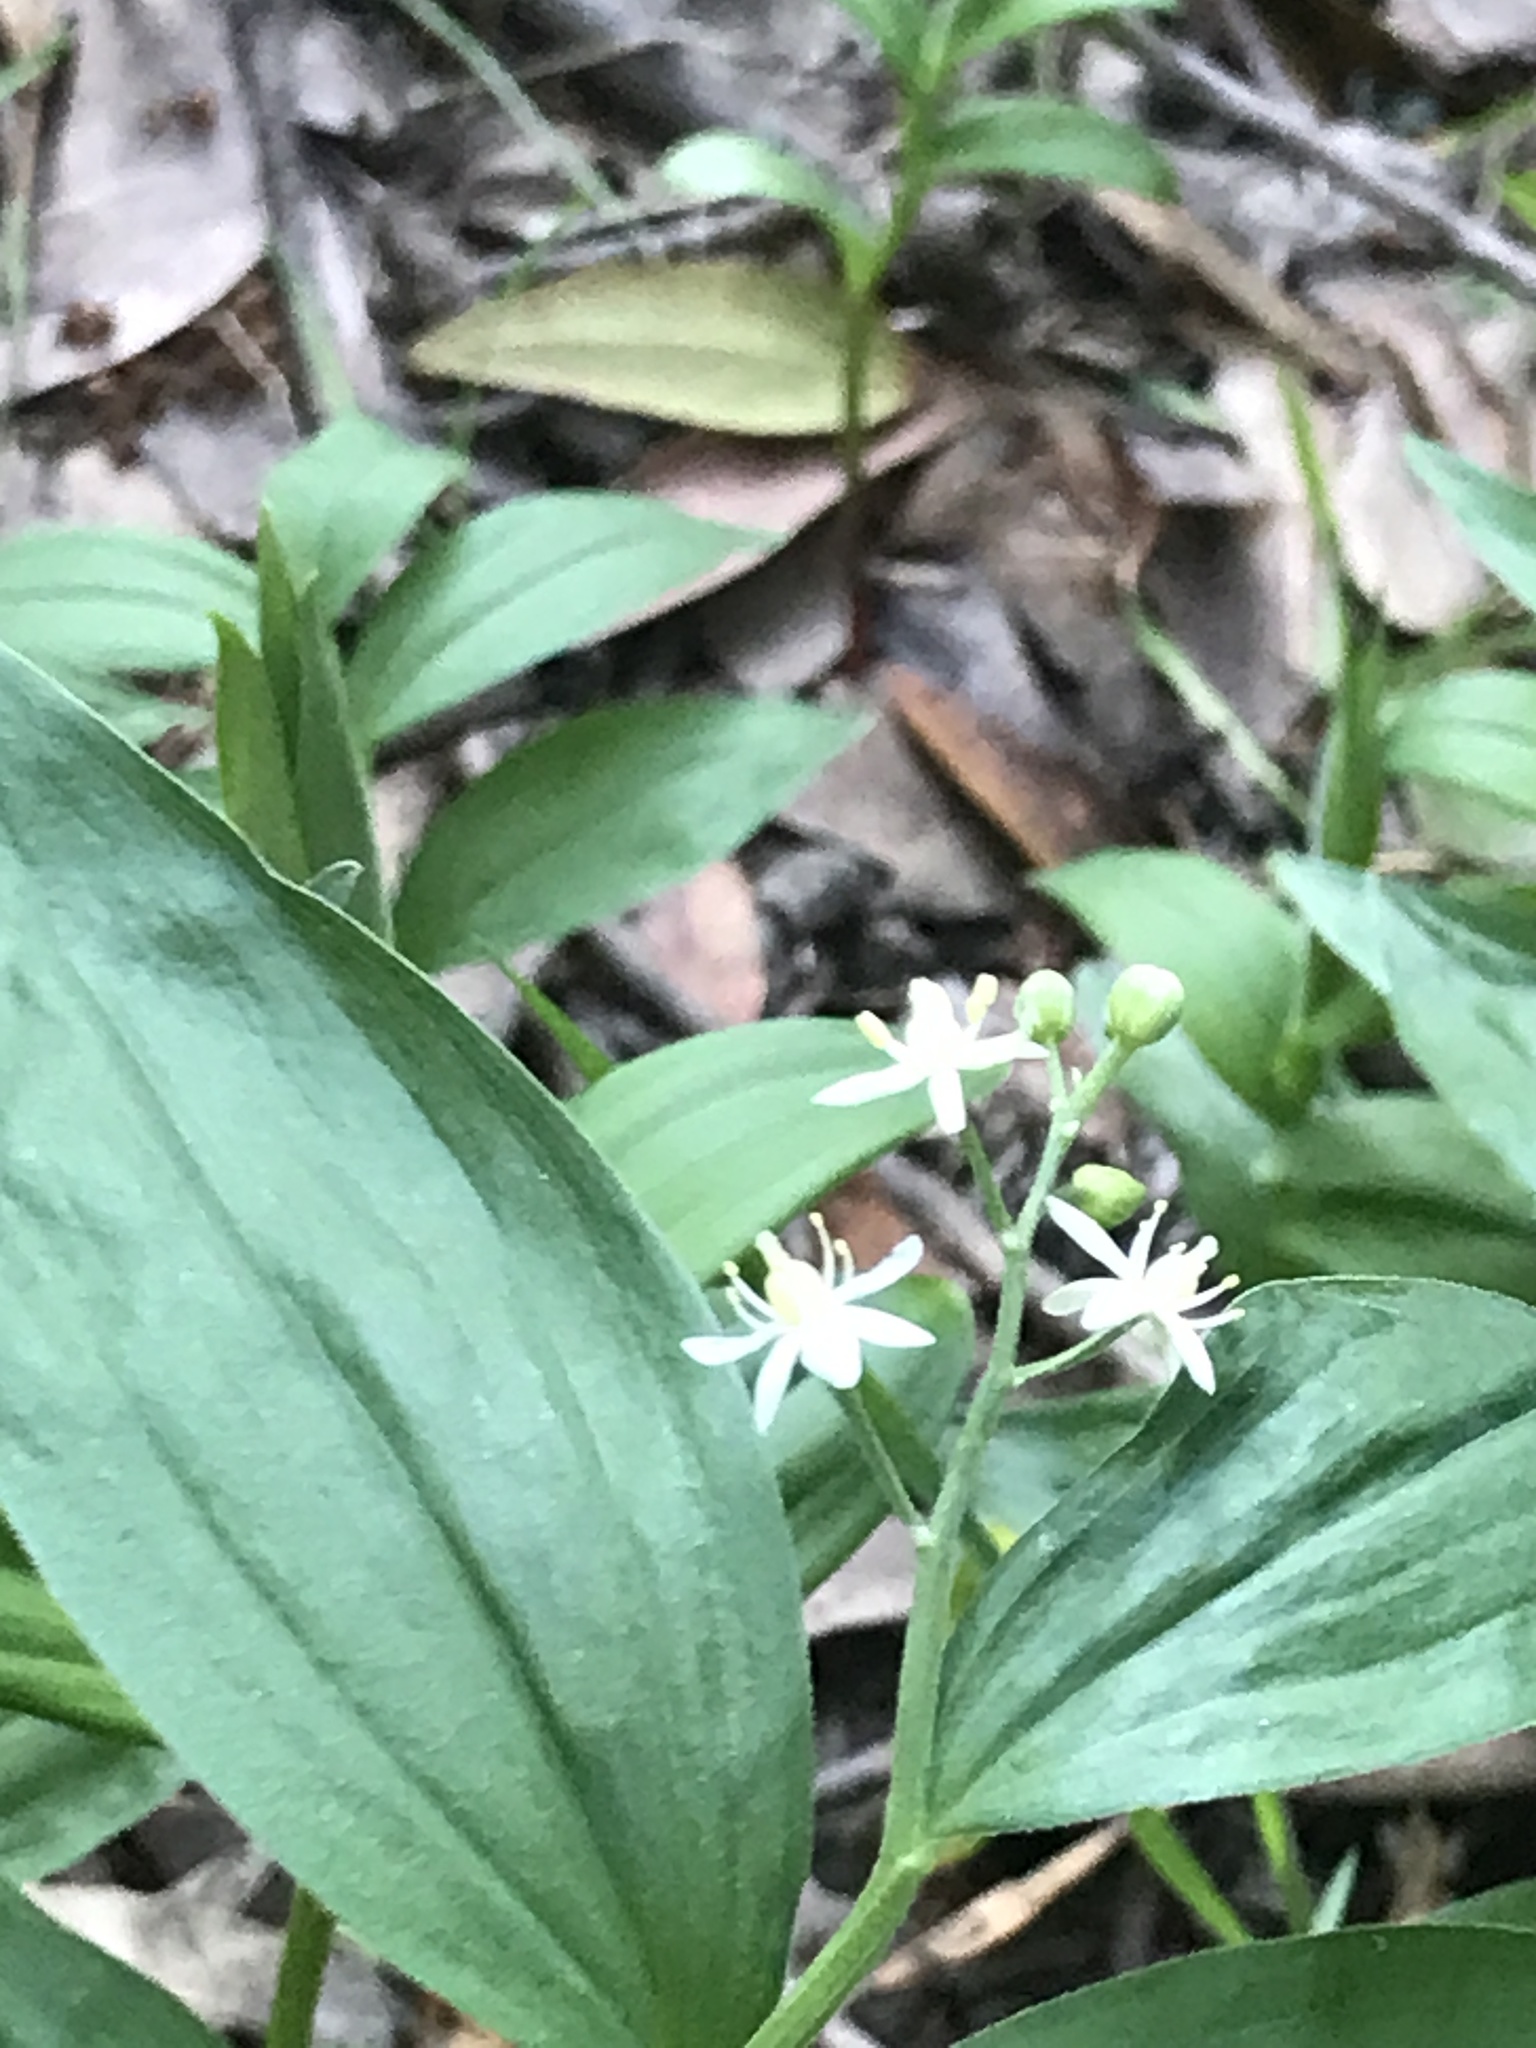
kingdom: Plantae
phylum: Tracheophyta
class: Liliopsida
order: Asparagales
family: Asparagaceae
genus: Maianthemum
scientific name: Maianthemum stellatum
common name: Little false solomon's seal
